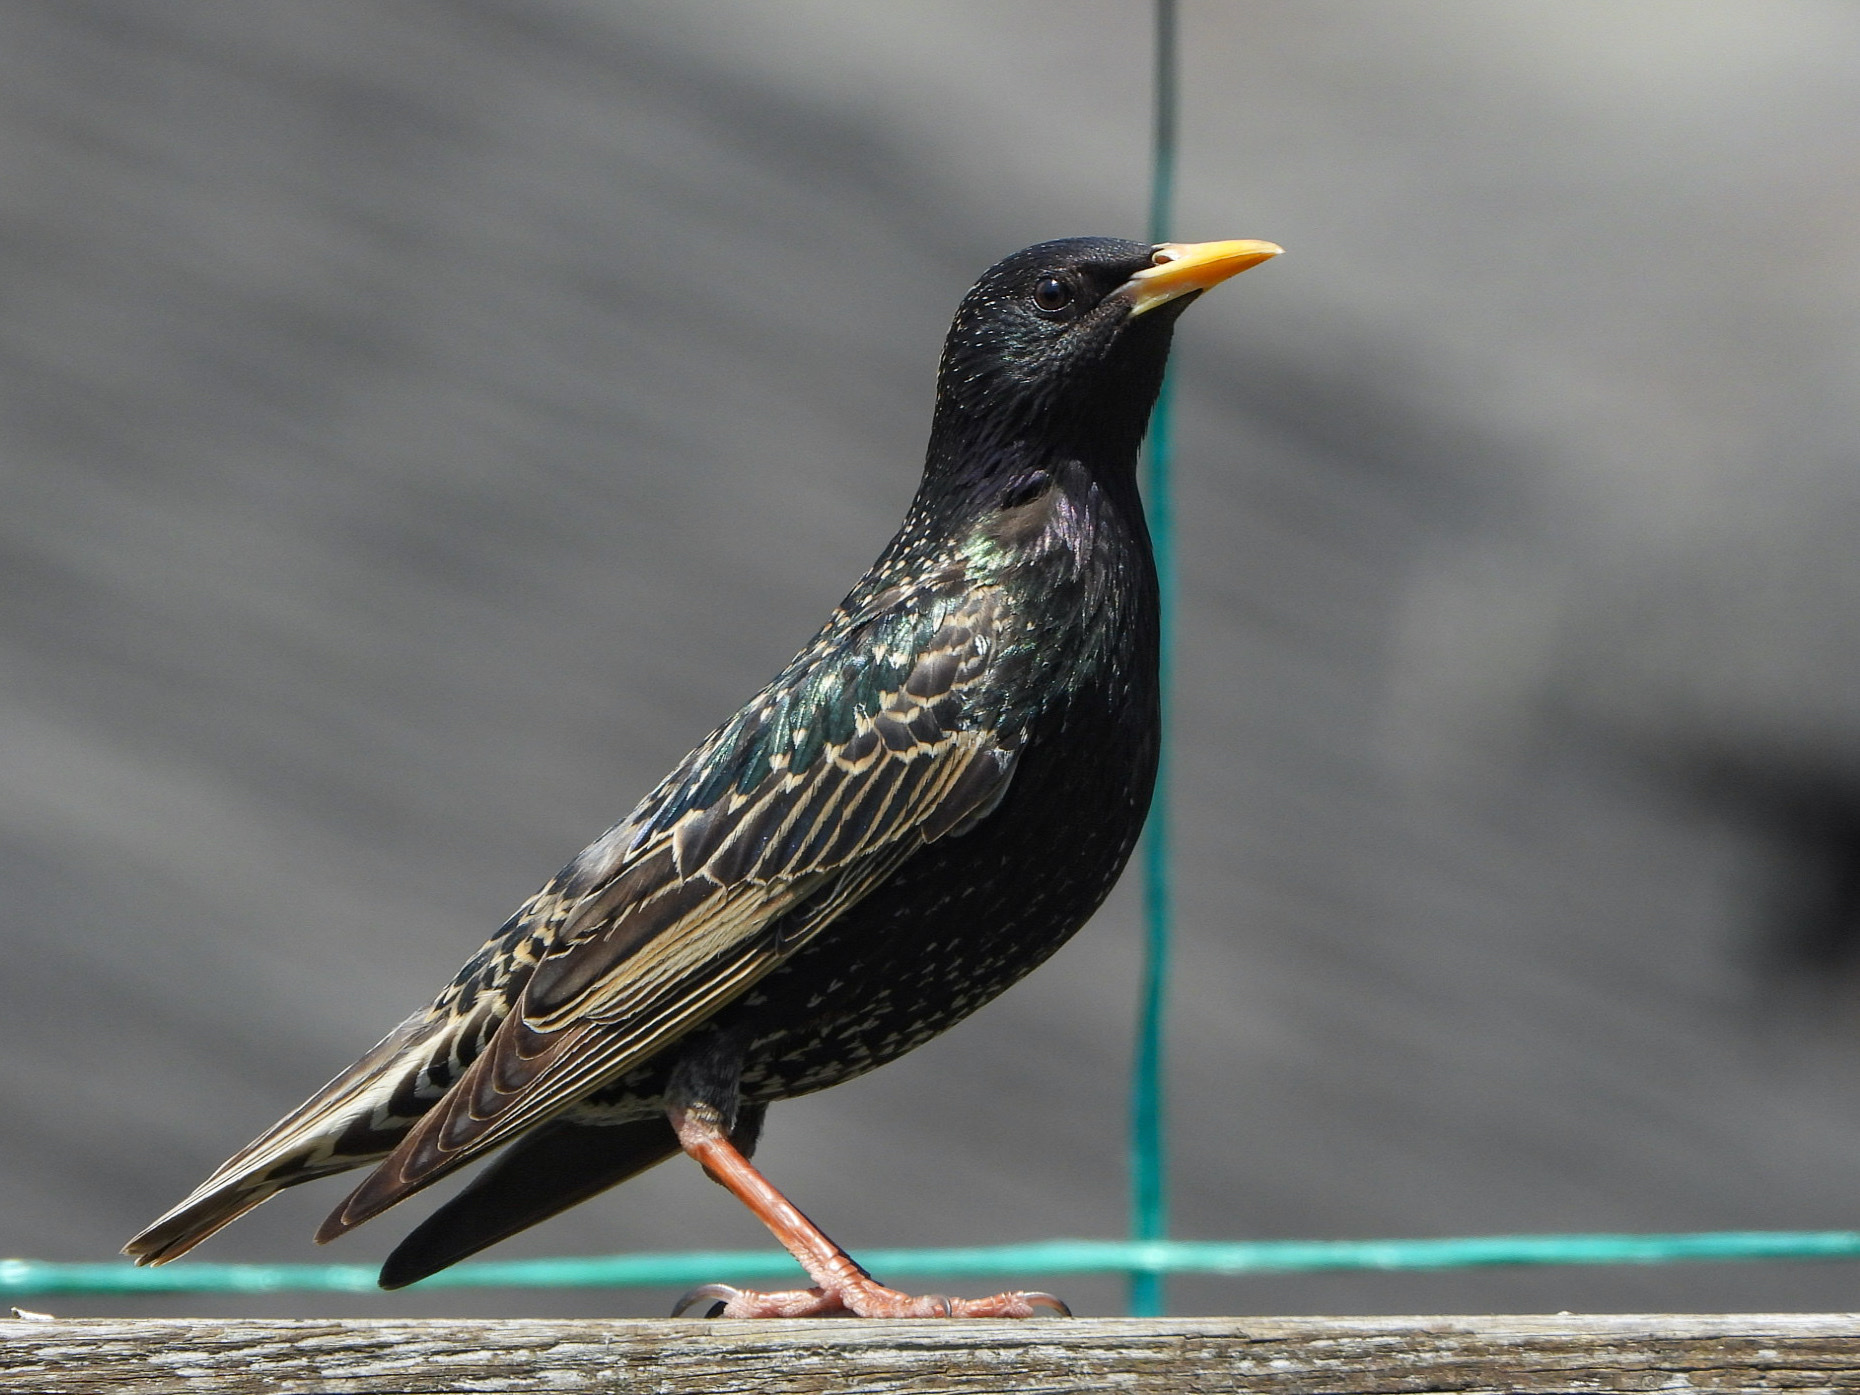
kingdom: Animalia
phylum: Chordata
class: Aves
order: Passeriformes
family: Sturnidae
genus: Sturnus
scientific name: Sturnus vulgaris
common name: Common starling
